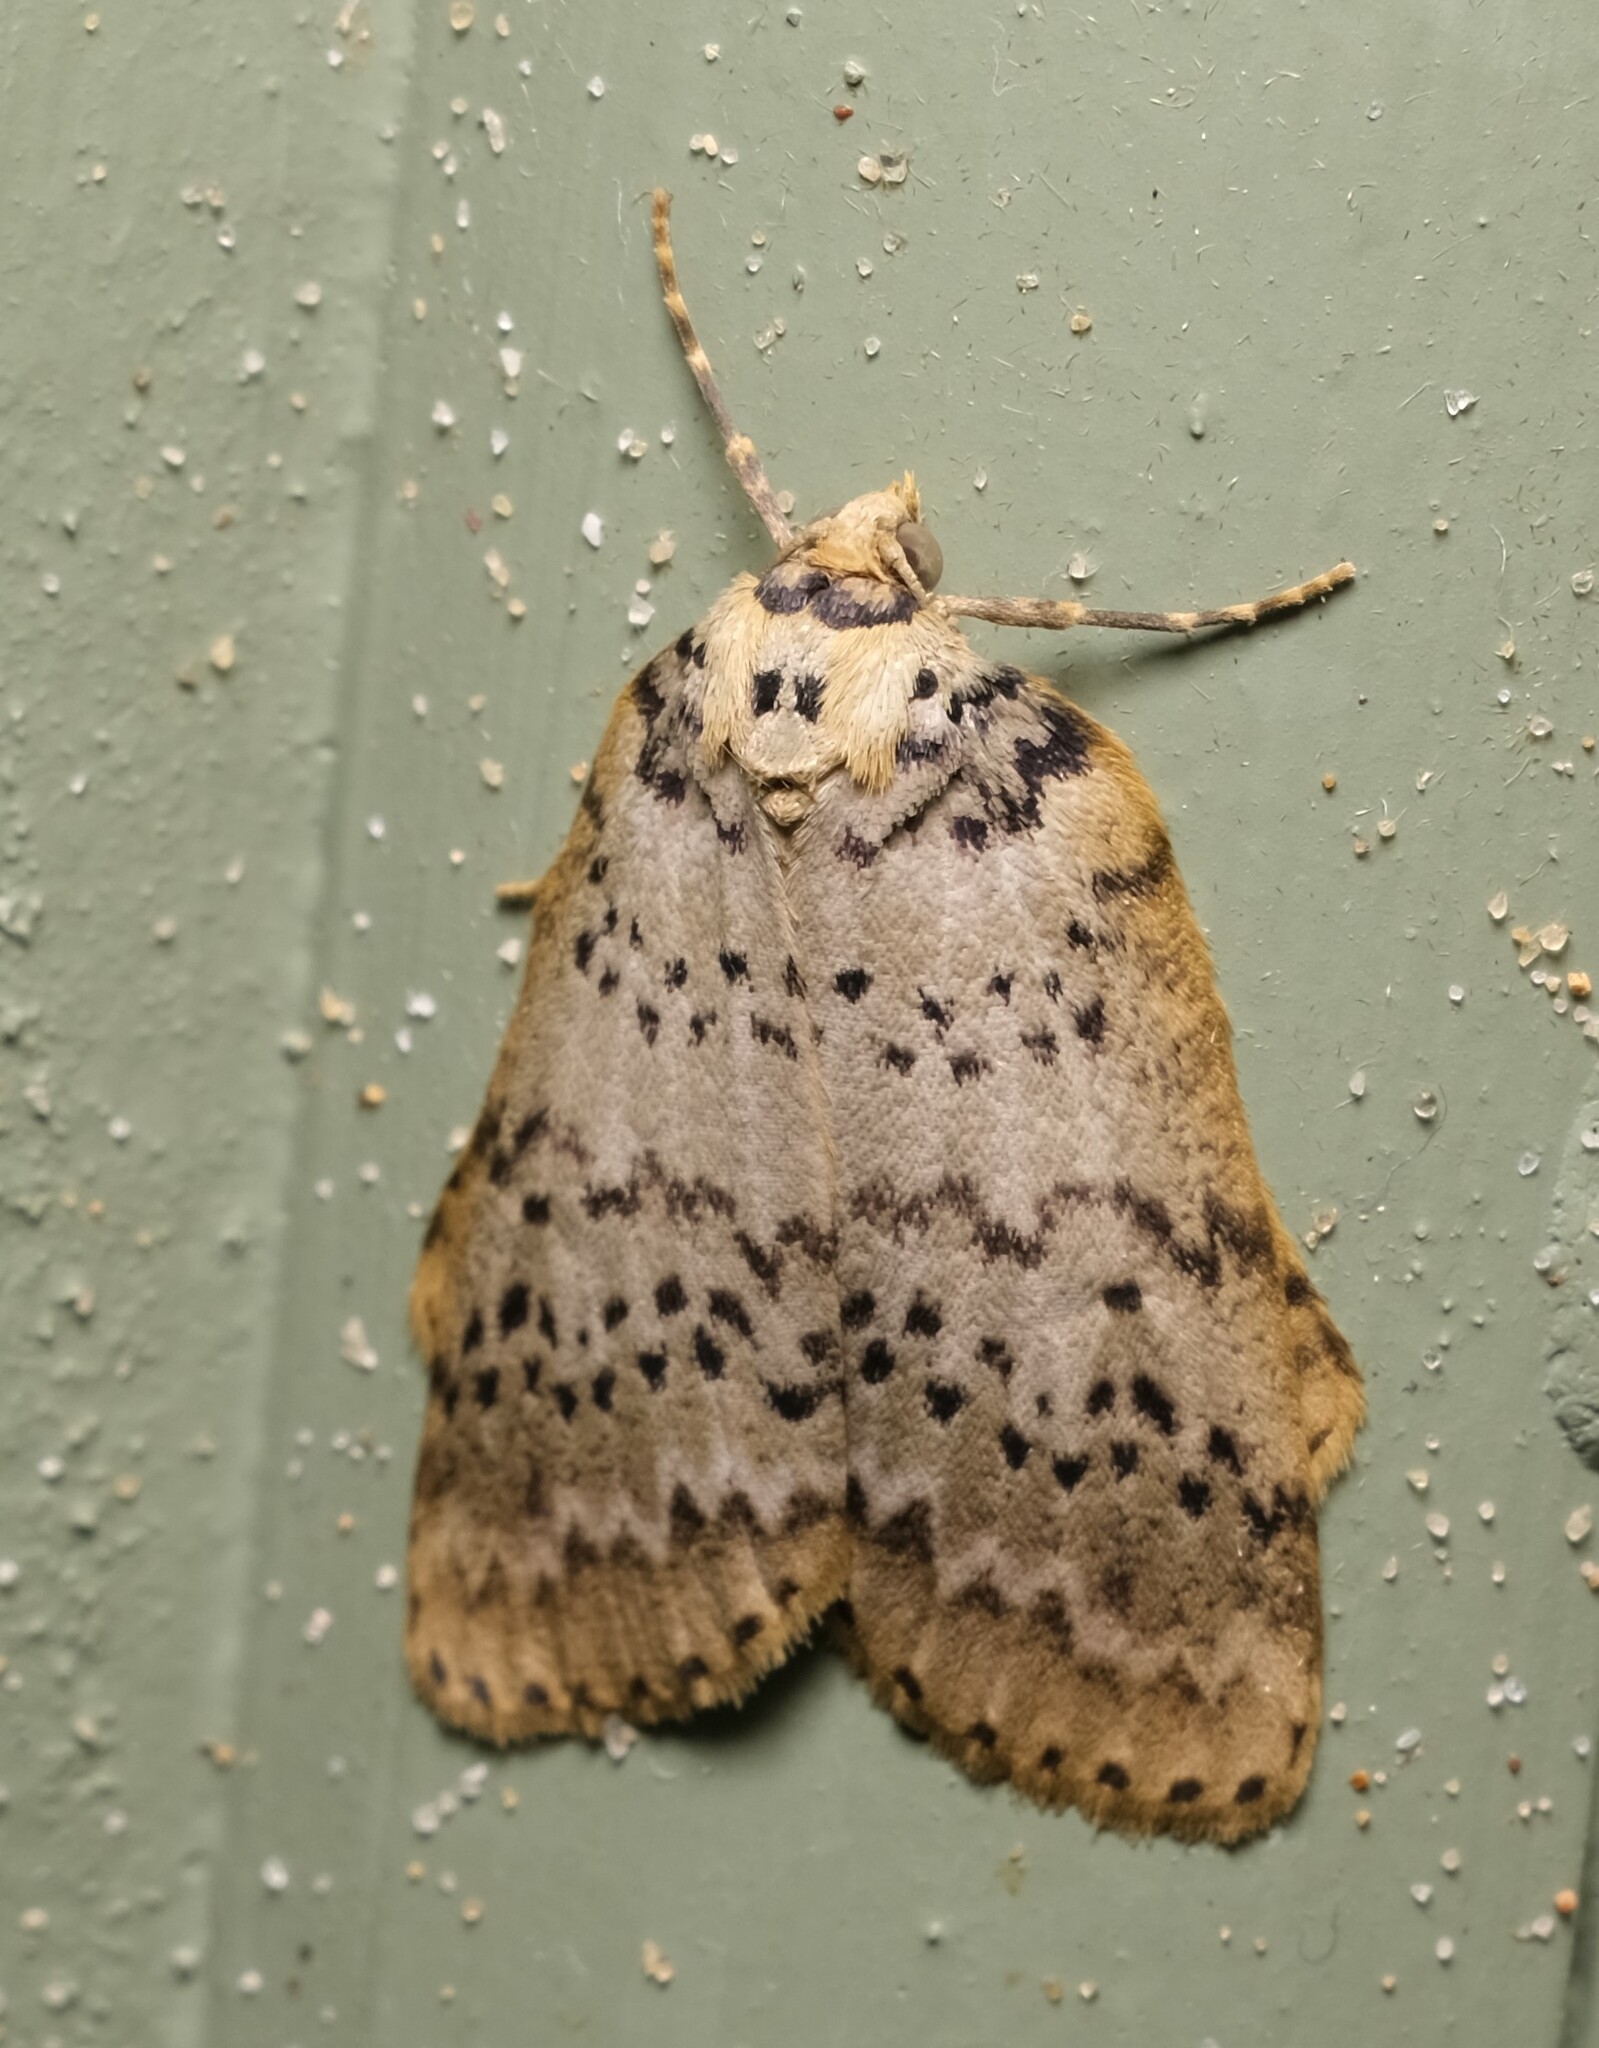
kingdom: Animalia
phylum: Arthropoda
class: Insecta
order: Lepidoptera
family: Geometridae
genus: Lyelliana
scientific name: Lyelliana dryophila
